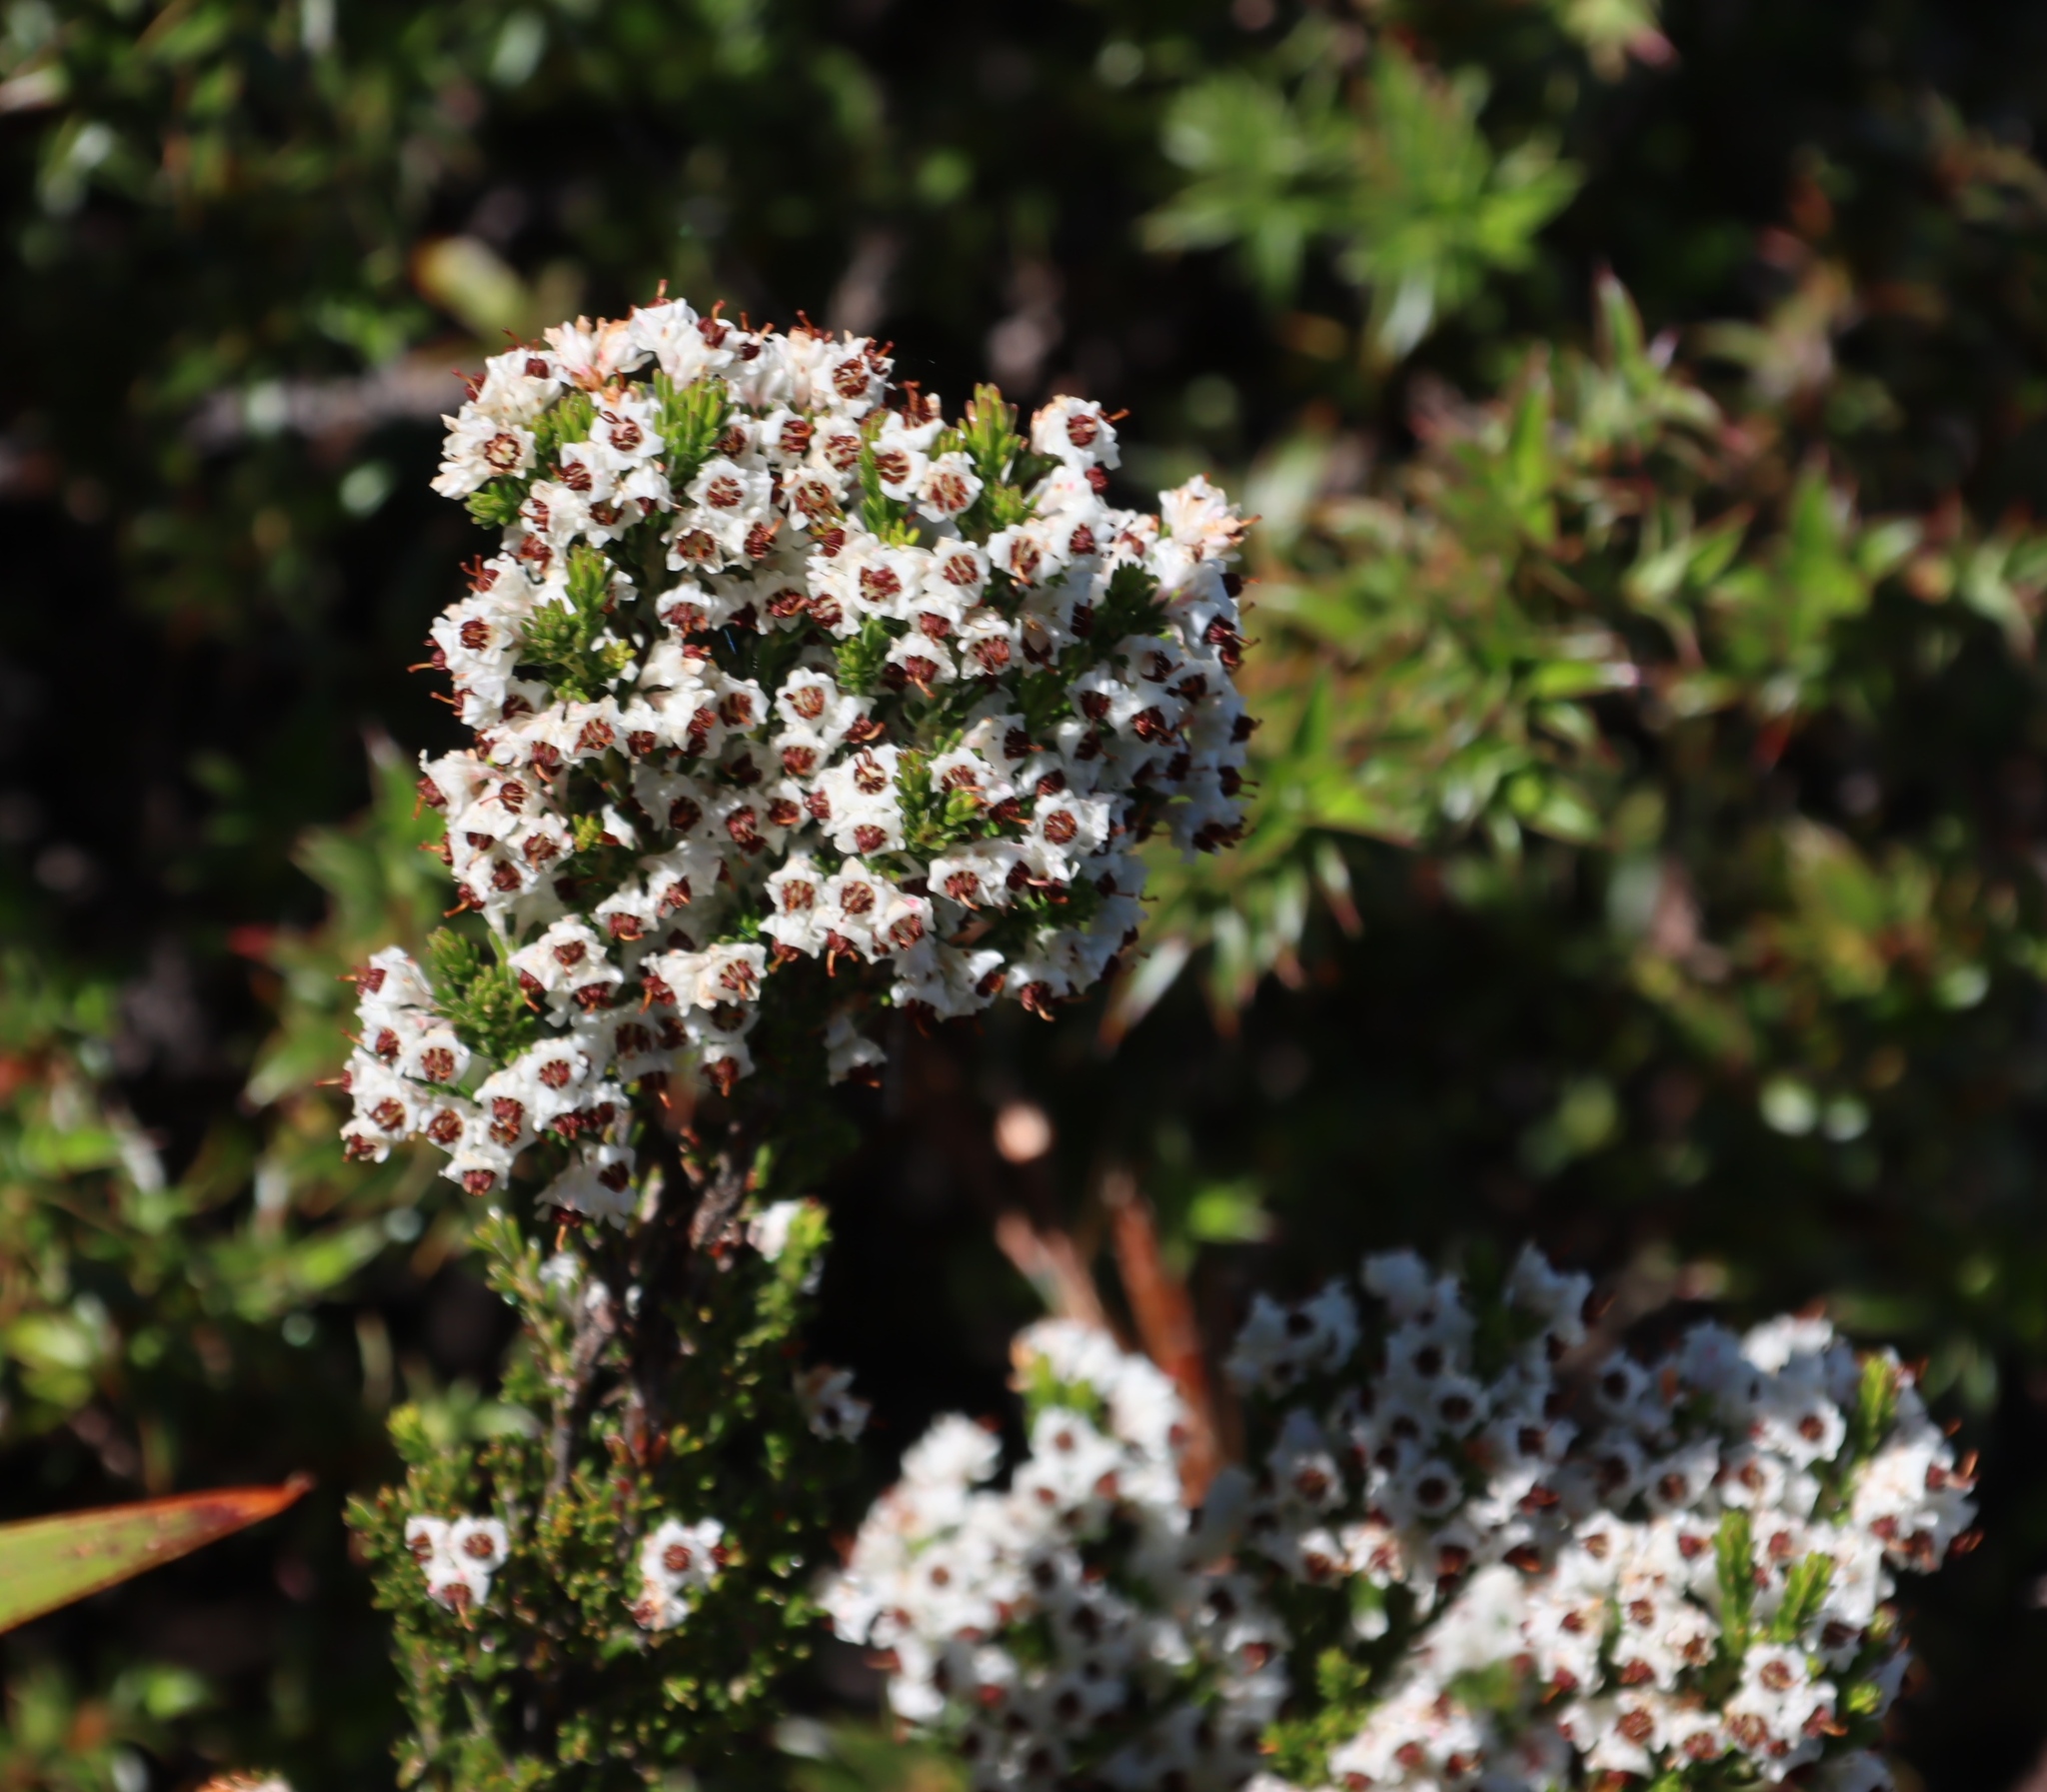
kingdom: Plantae
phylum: Tracheophyta
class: Magnoliopsida
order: Ericales
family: Ericaceae
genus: Erica
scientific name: Erica calycina
